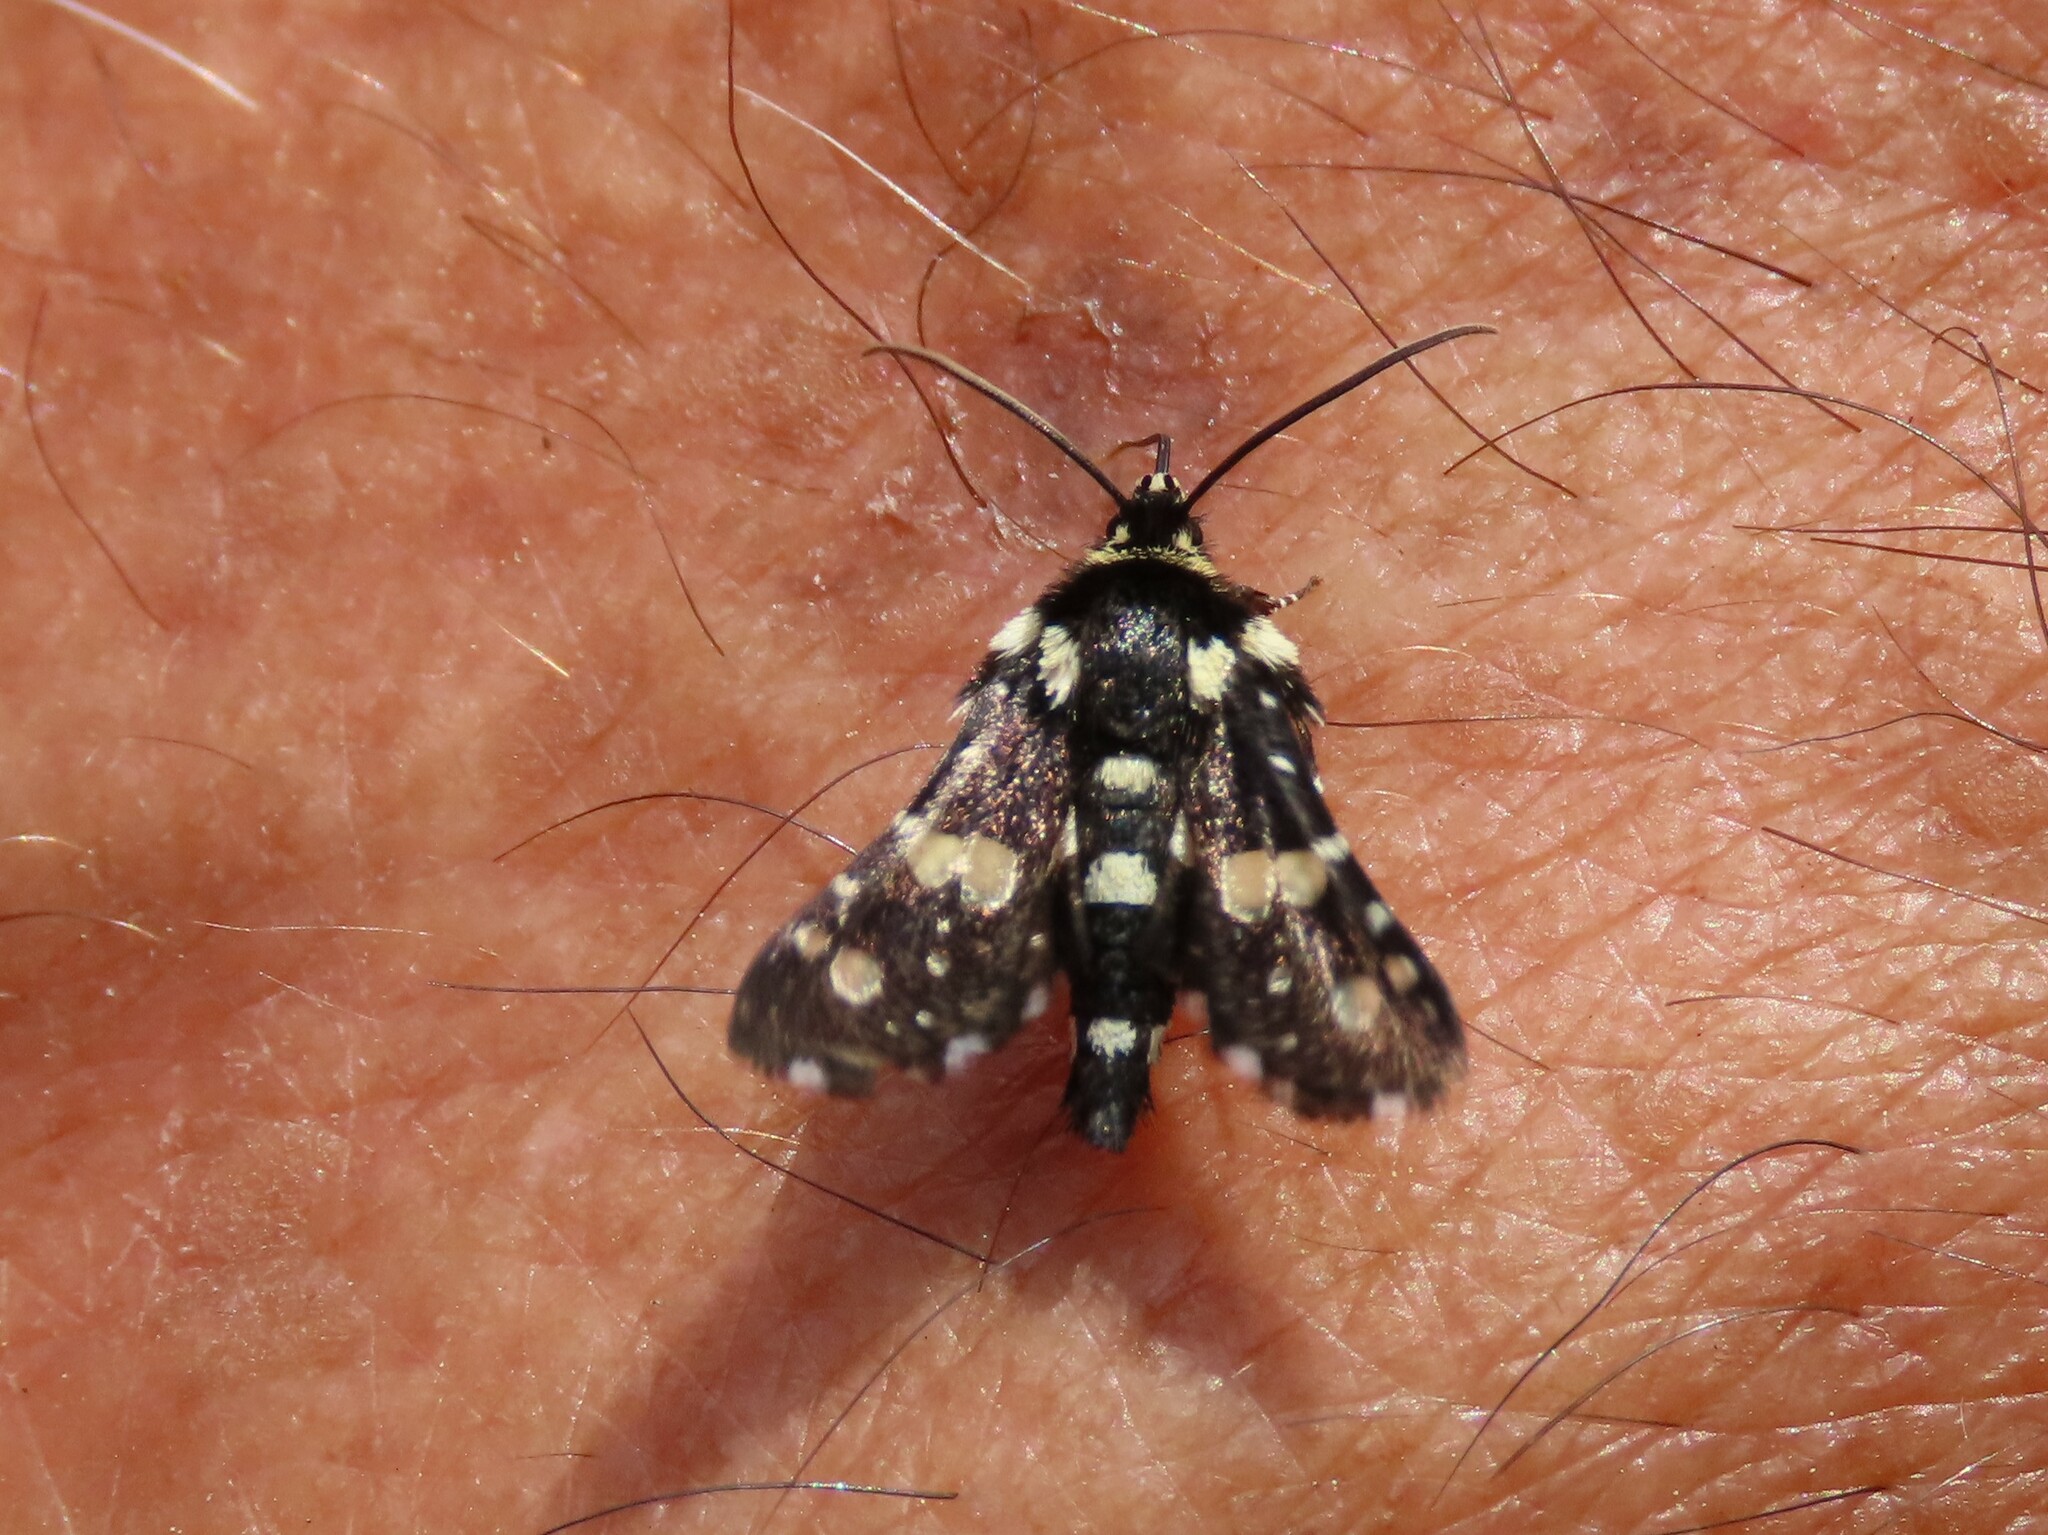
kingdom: Animalia
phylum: Arthropoda
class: Insecta
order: Lepidoptera
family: Thyrididae
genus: Pseudothyris
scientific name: Pseudothyris sepulchralis
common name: Mournful thyris moth
